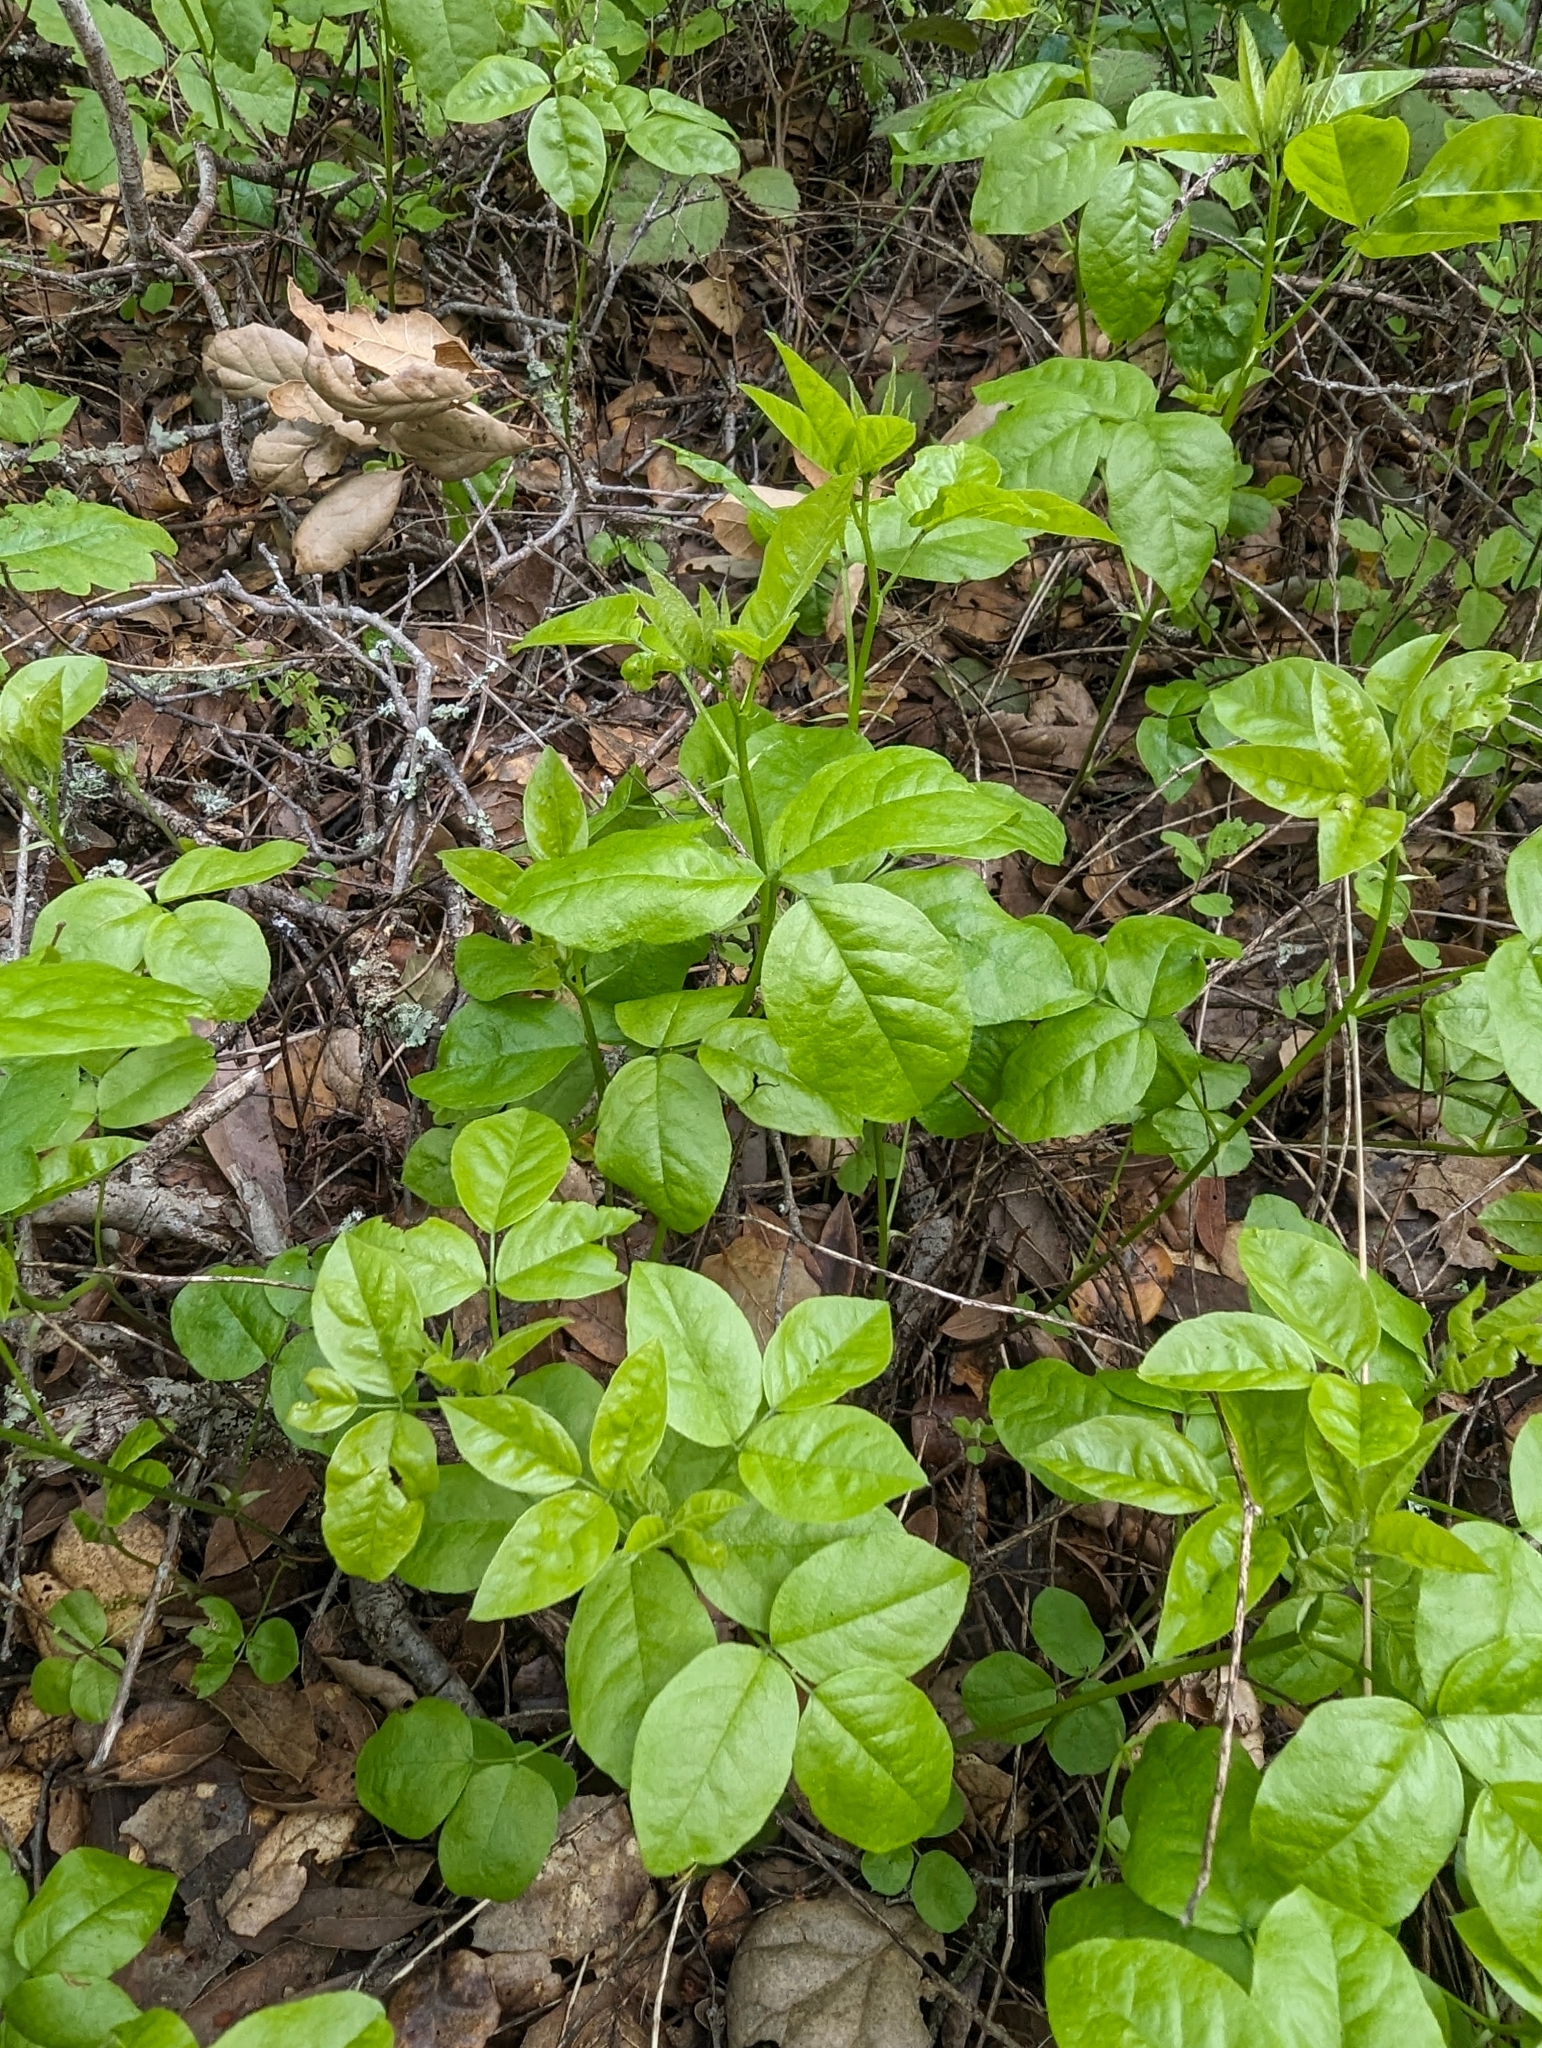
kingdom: Plantae
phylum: Tracheophyta
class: Magnoliopsida
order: Fabales
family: Fabaceae
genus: Rupertia
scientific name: Rupertia physodes
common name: California-tea
